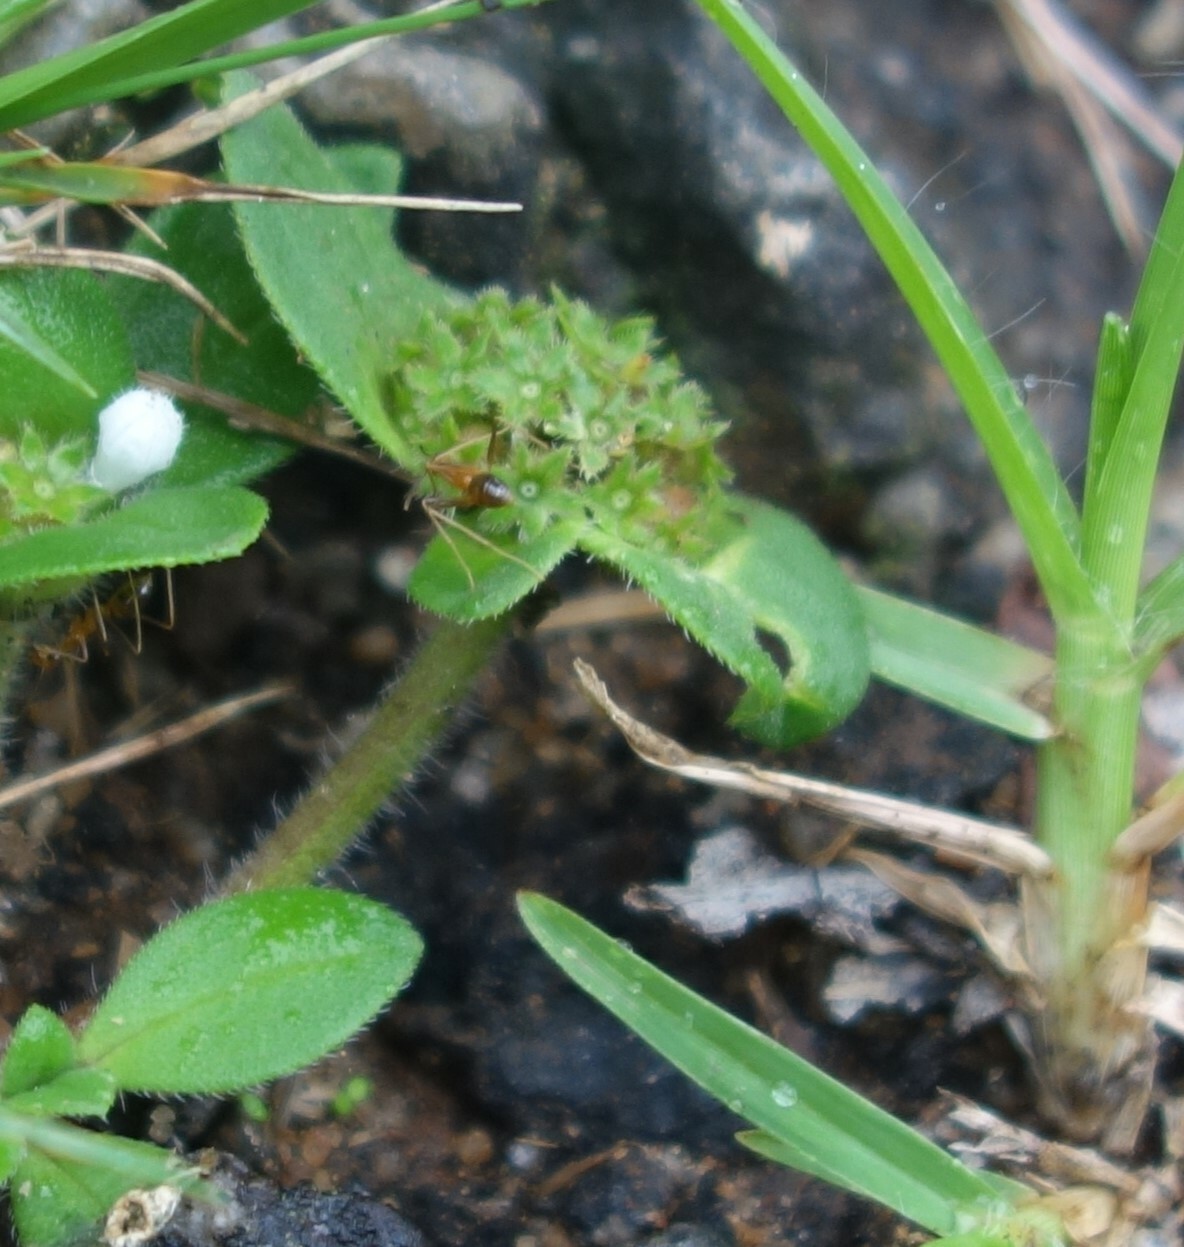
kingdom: Animalia
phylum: Arthropoda
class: Insecta
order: Hymenoptera
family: Formicidae
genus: Anoplolepis
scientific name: Anoplolepis gracilipes
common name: Ant
